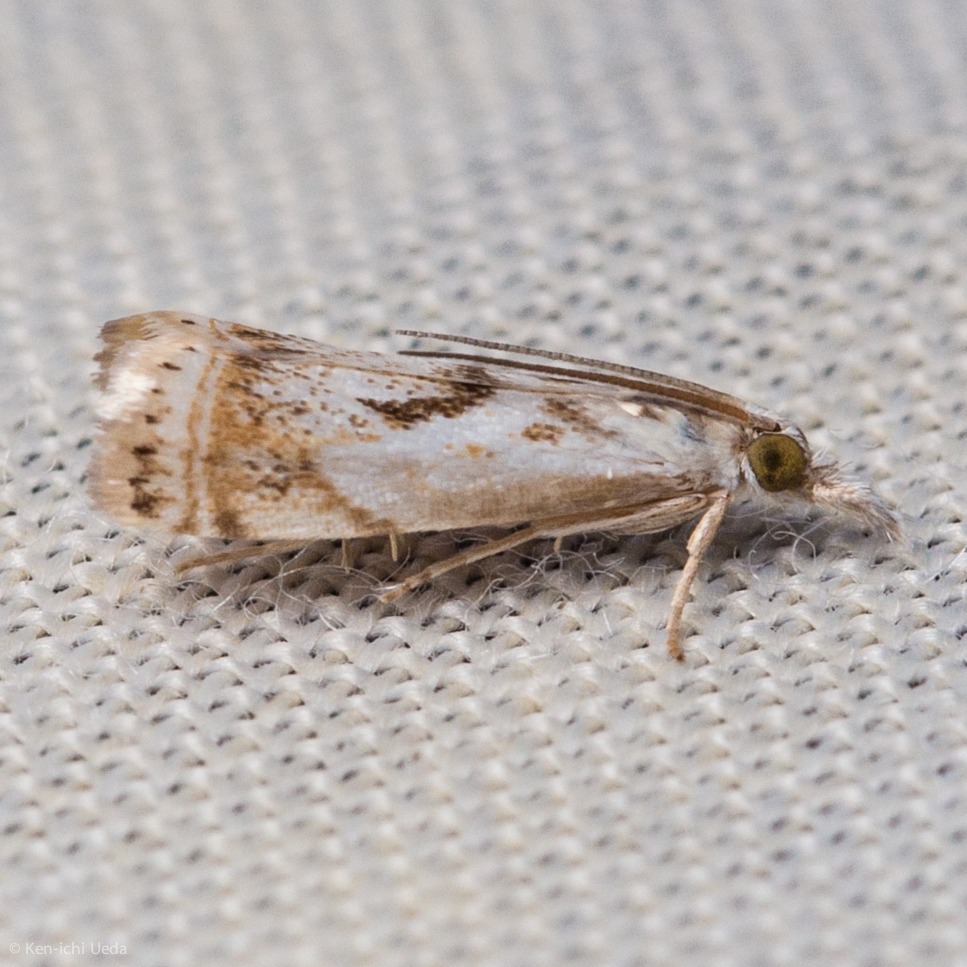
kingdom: Animalia
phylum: Arthropoda
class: Insecta
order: Lepidoptera
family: Crambidae
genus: Microcrambus
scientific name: Microcrambus elegans
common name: Elegant grass-veneer
